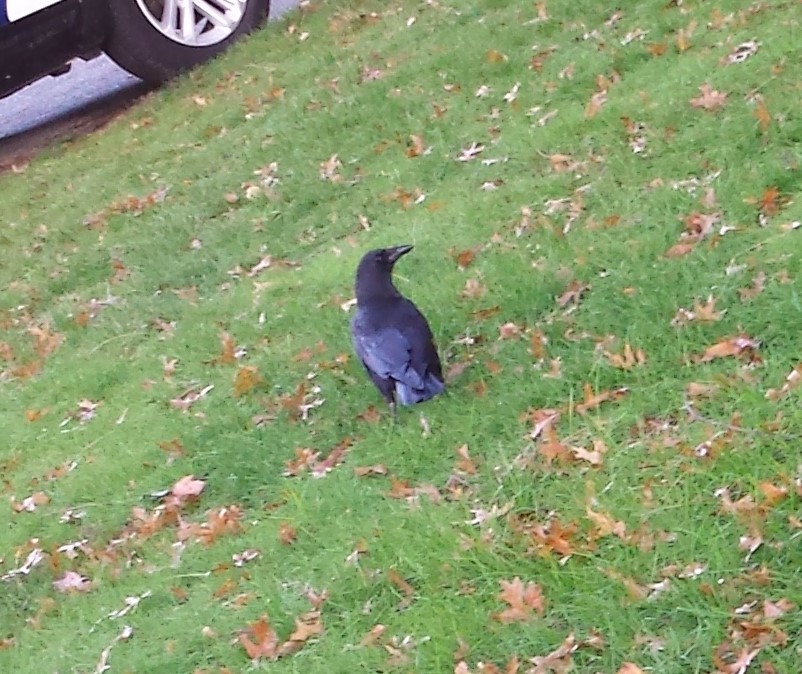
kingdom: Animalia
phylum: Chordata
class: Aves
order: Passeriformes
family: Corvidae
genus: Corvus
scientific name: Corvus brachyrhynchos
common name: American crow
